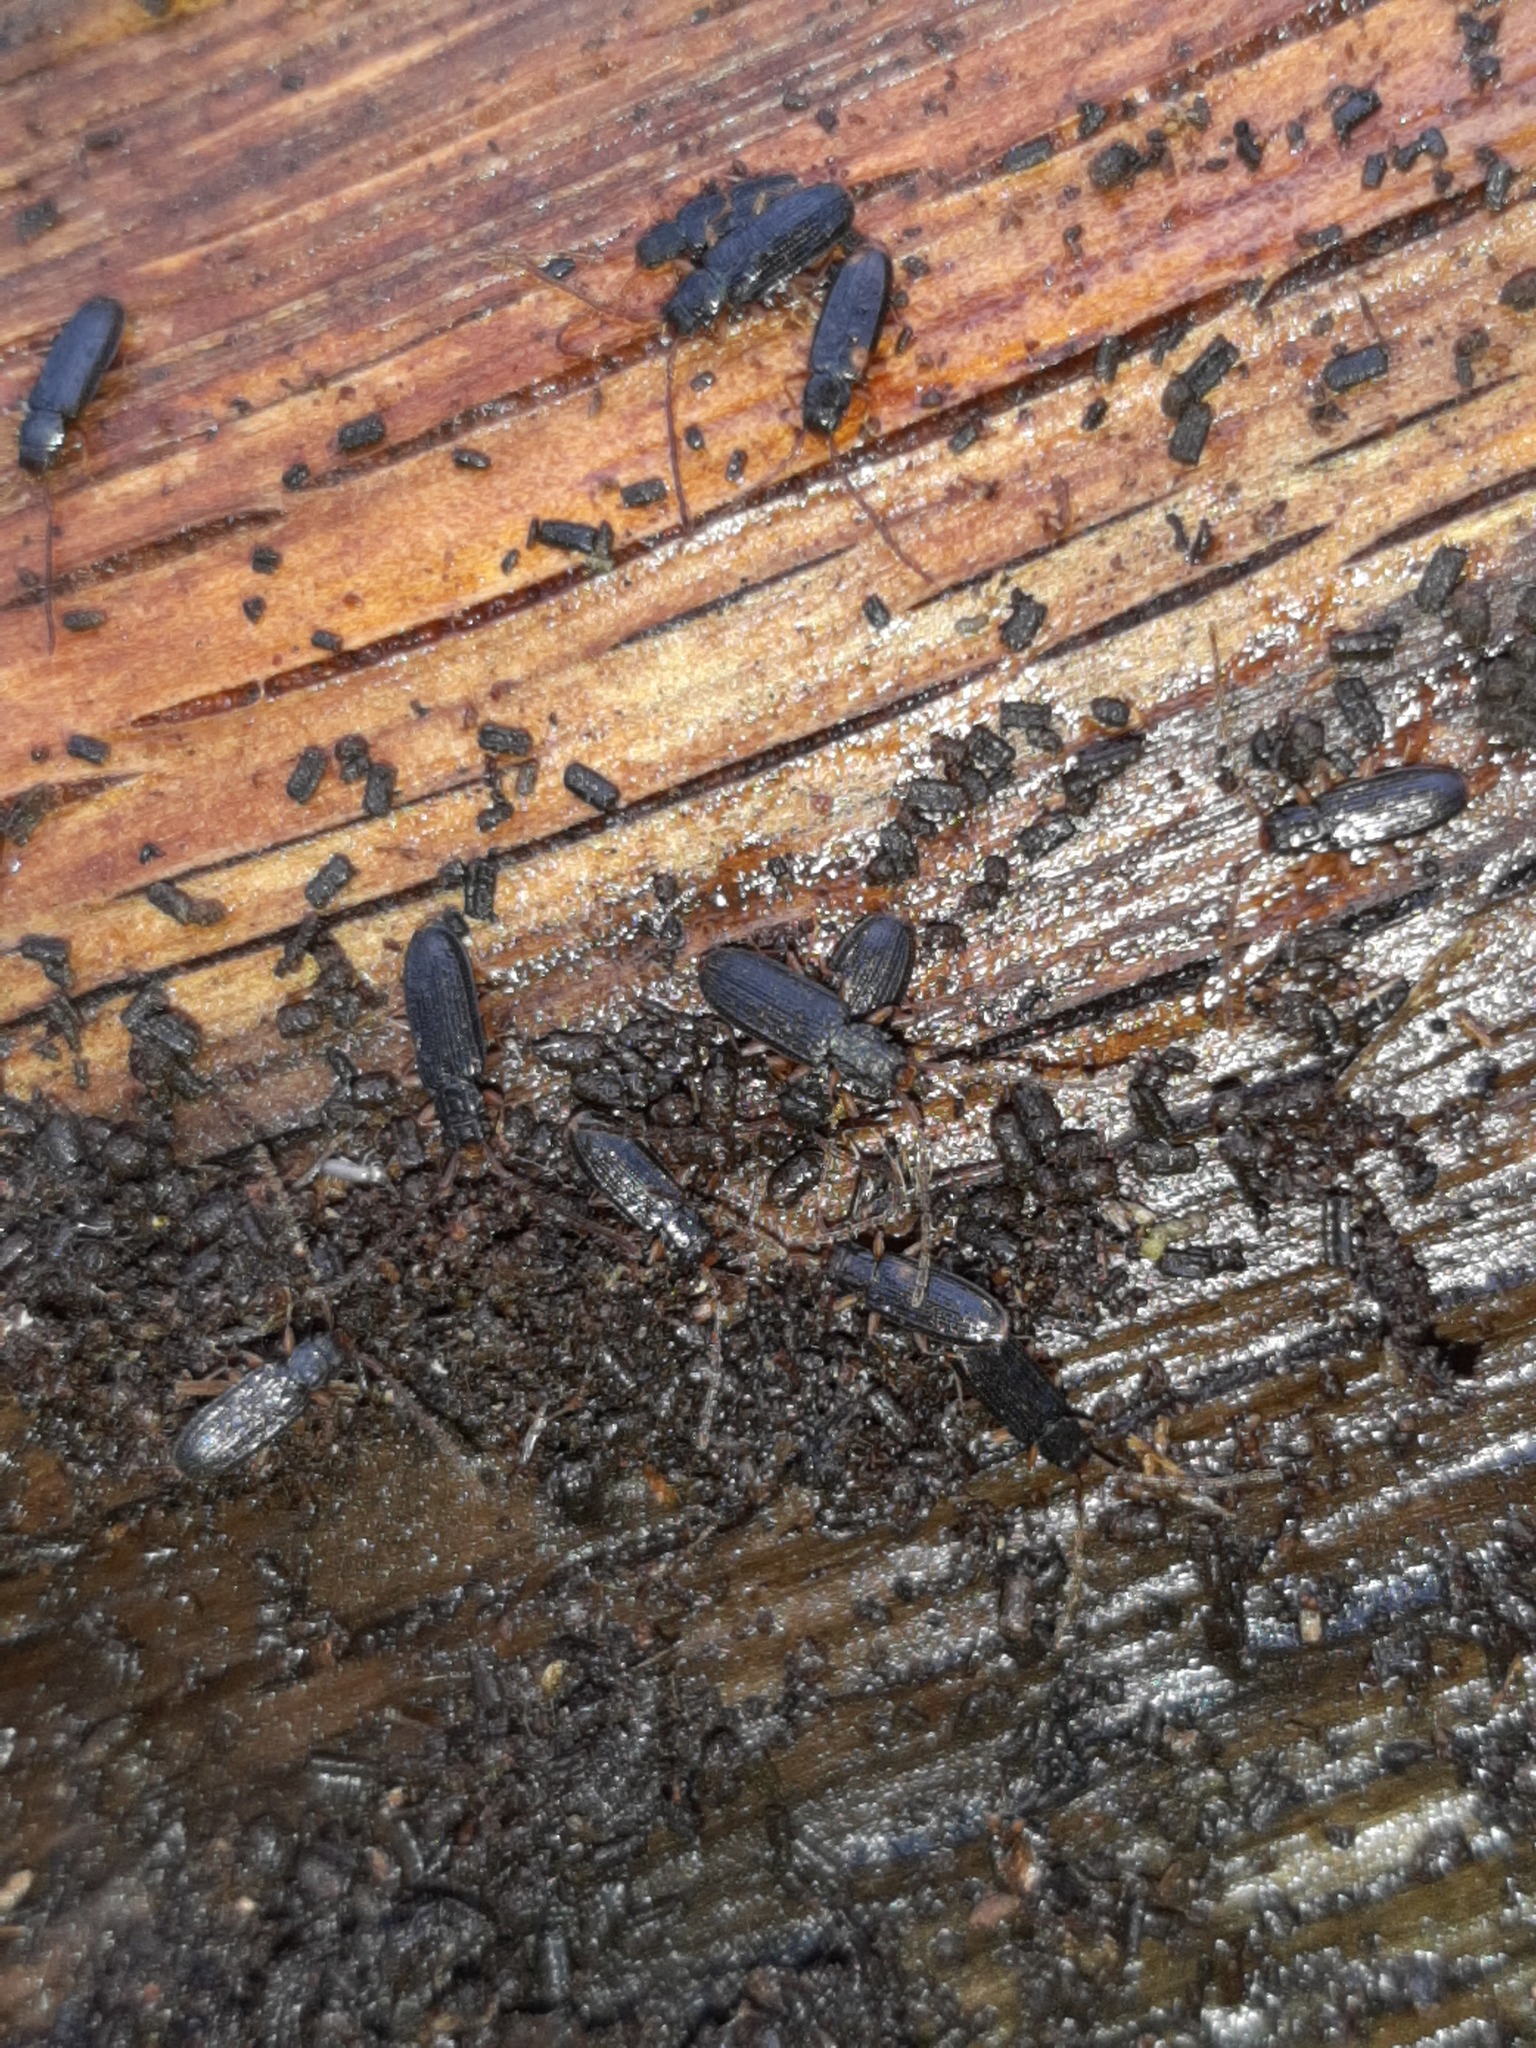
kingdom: Animalia
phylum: Arthropoda
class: Insecta
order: Coleoptera
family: Silvanidae
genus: Uleiota
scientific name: Uleiota planatus
